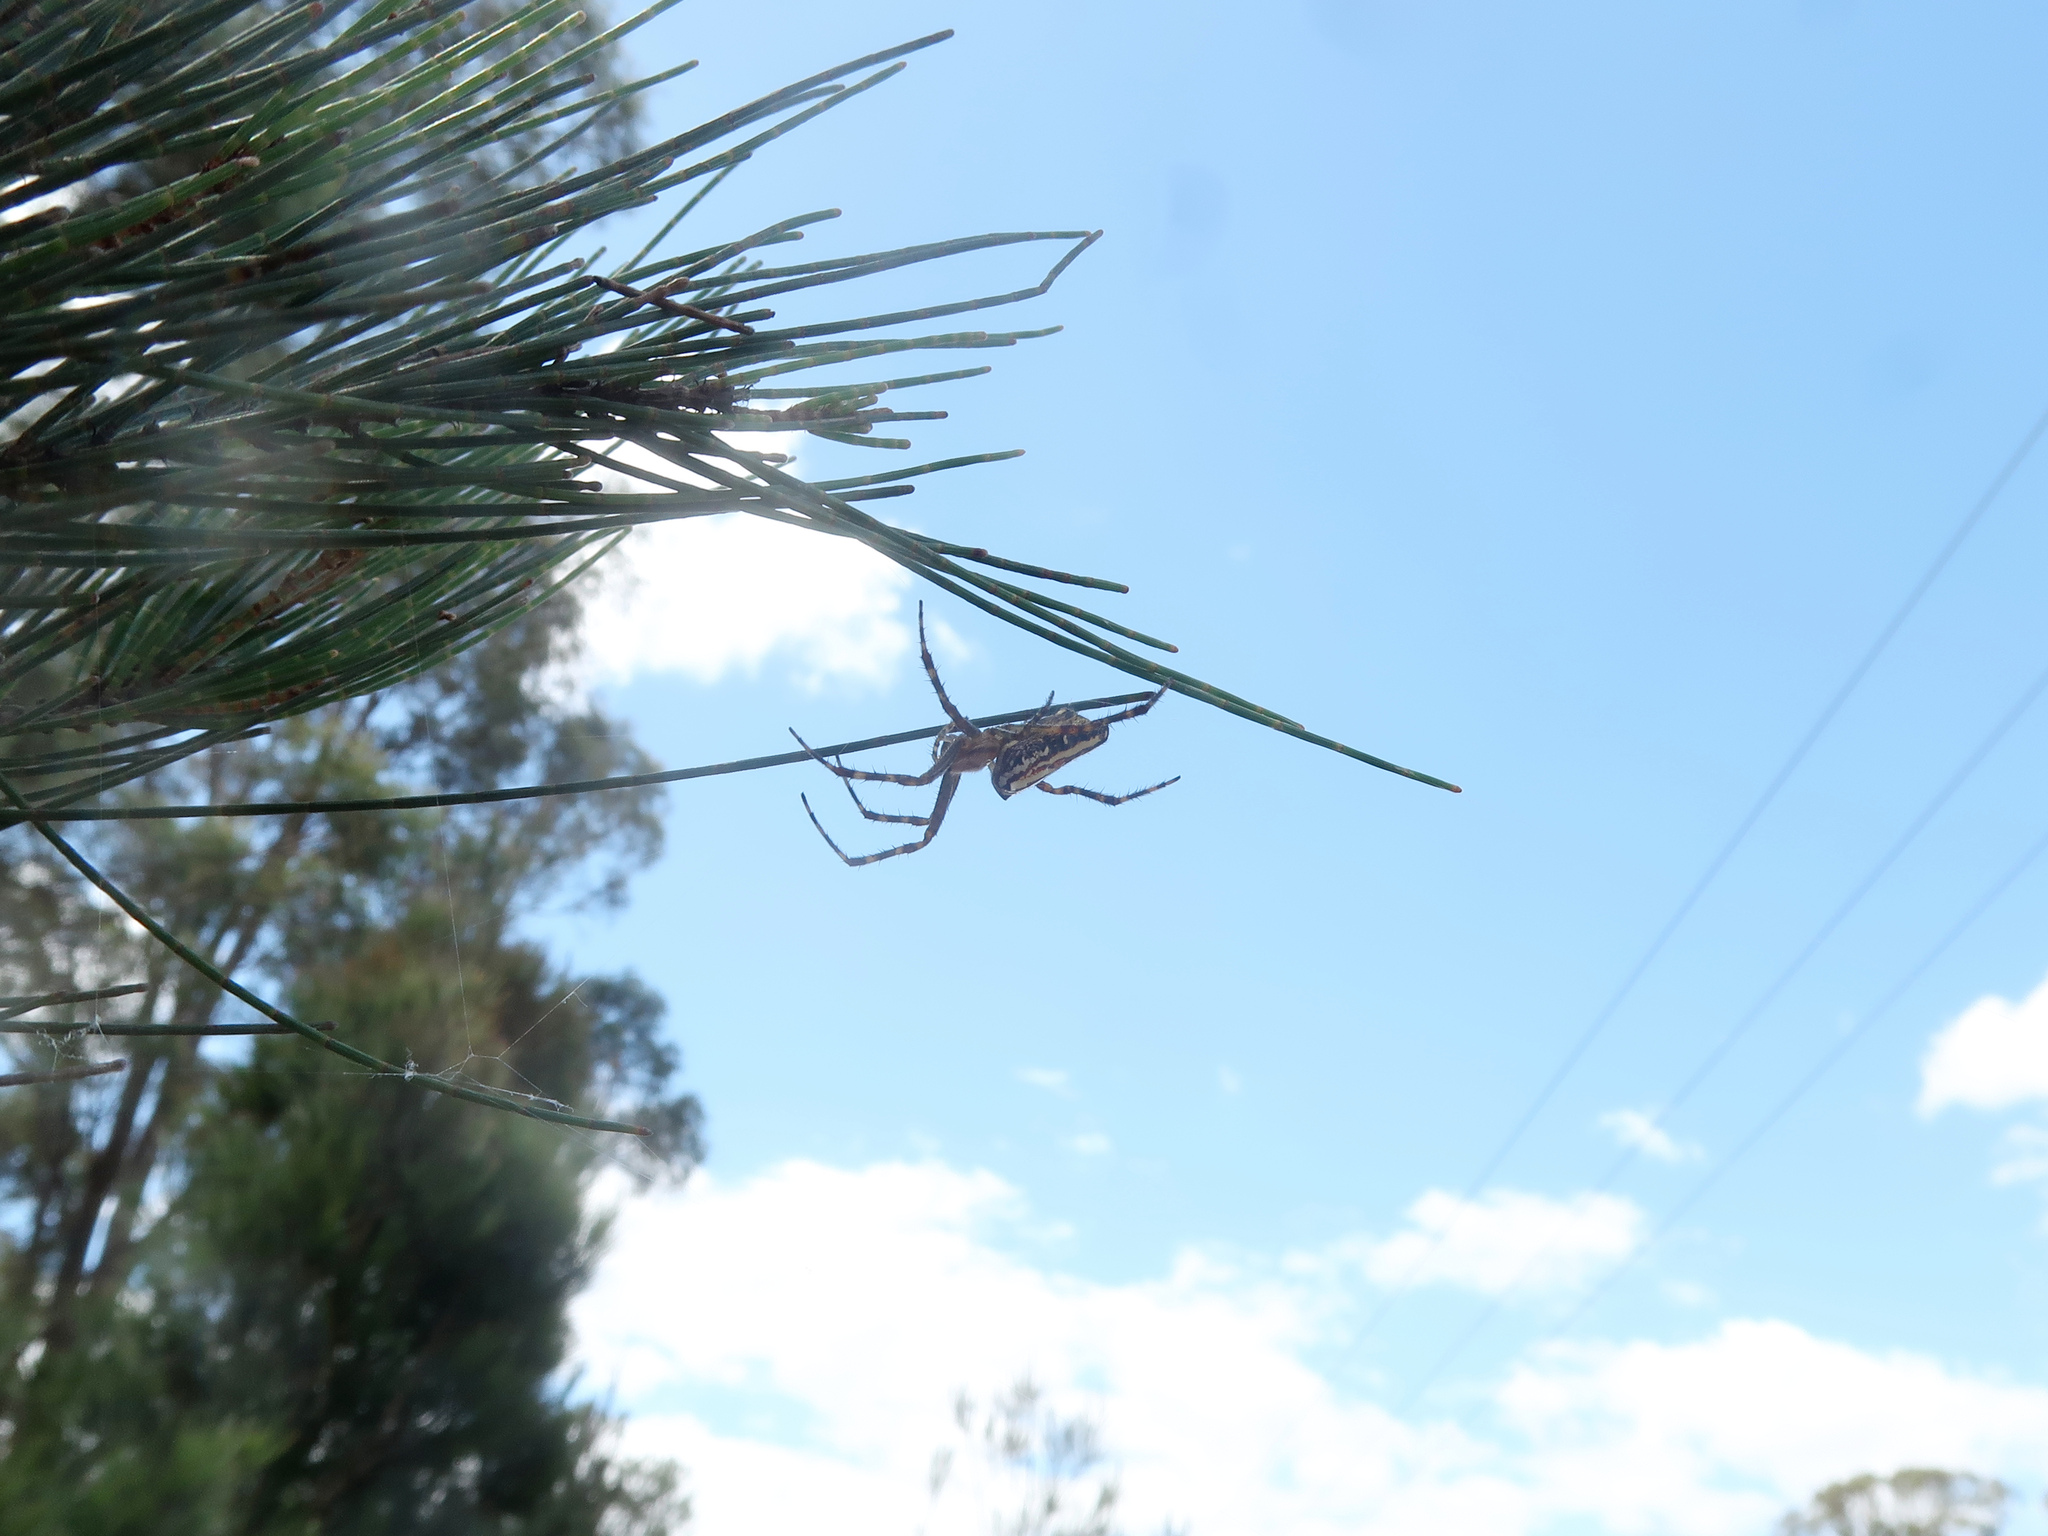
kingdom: Animalia
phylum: Arthropoda
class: Arachnida
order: Araneae
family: Araneidae
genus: Plebs
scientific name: Plebs bradleyi
